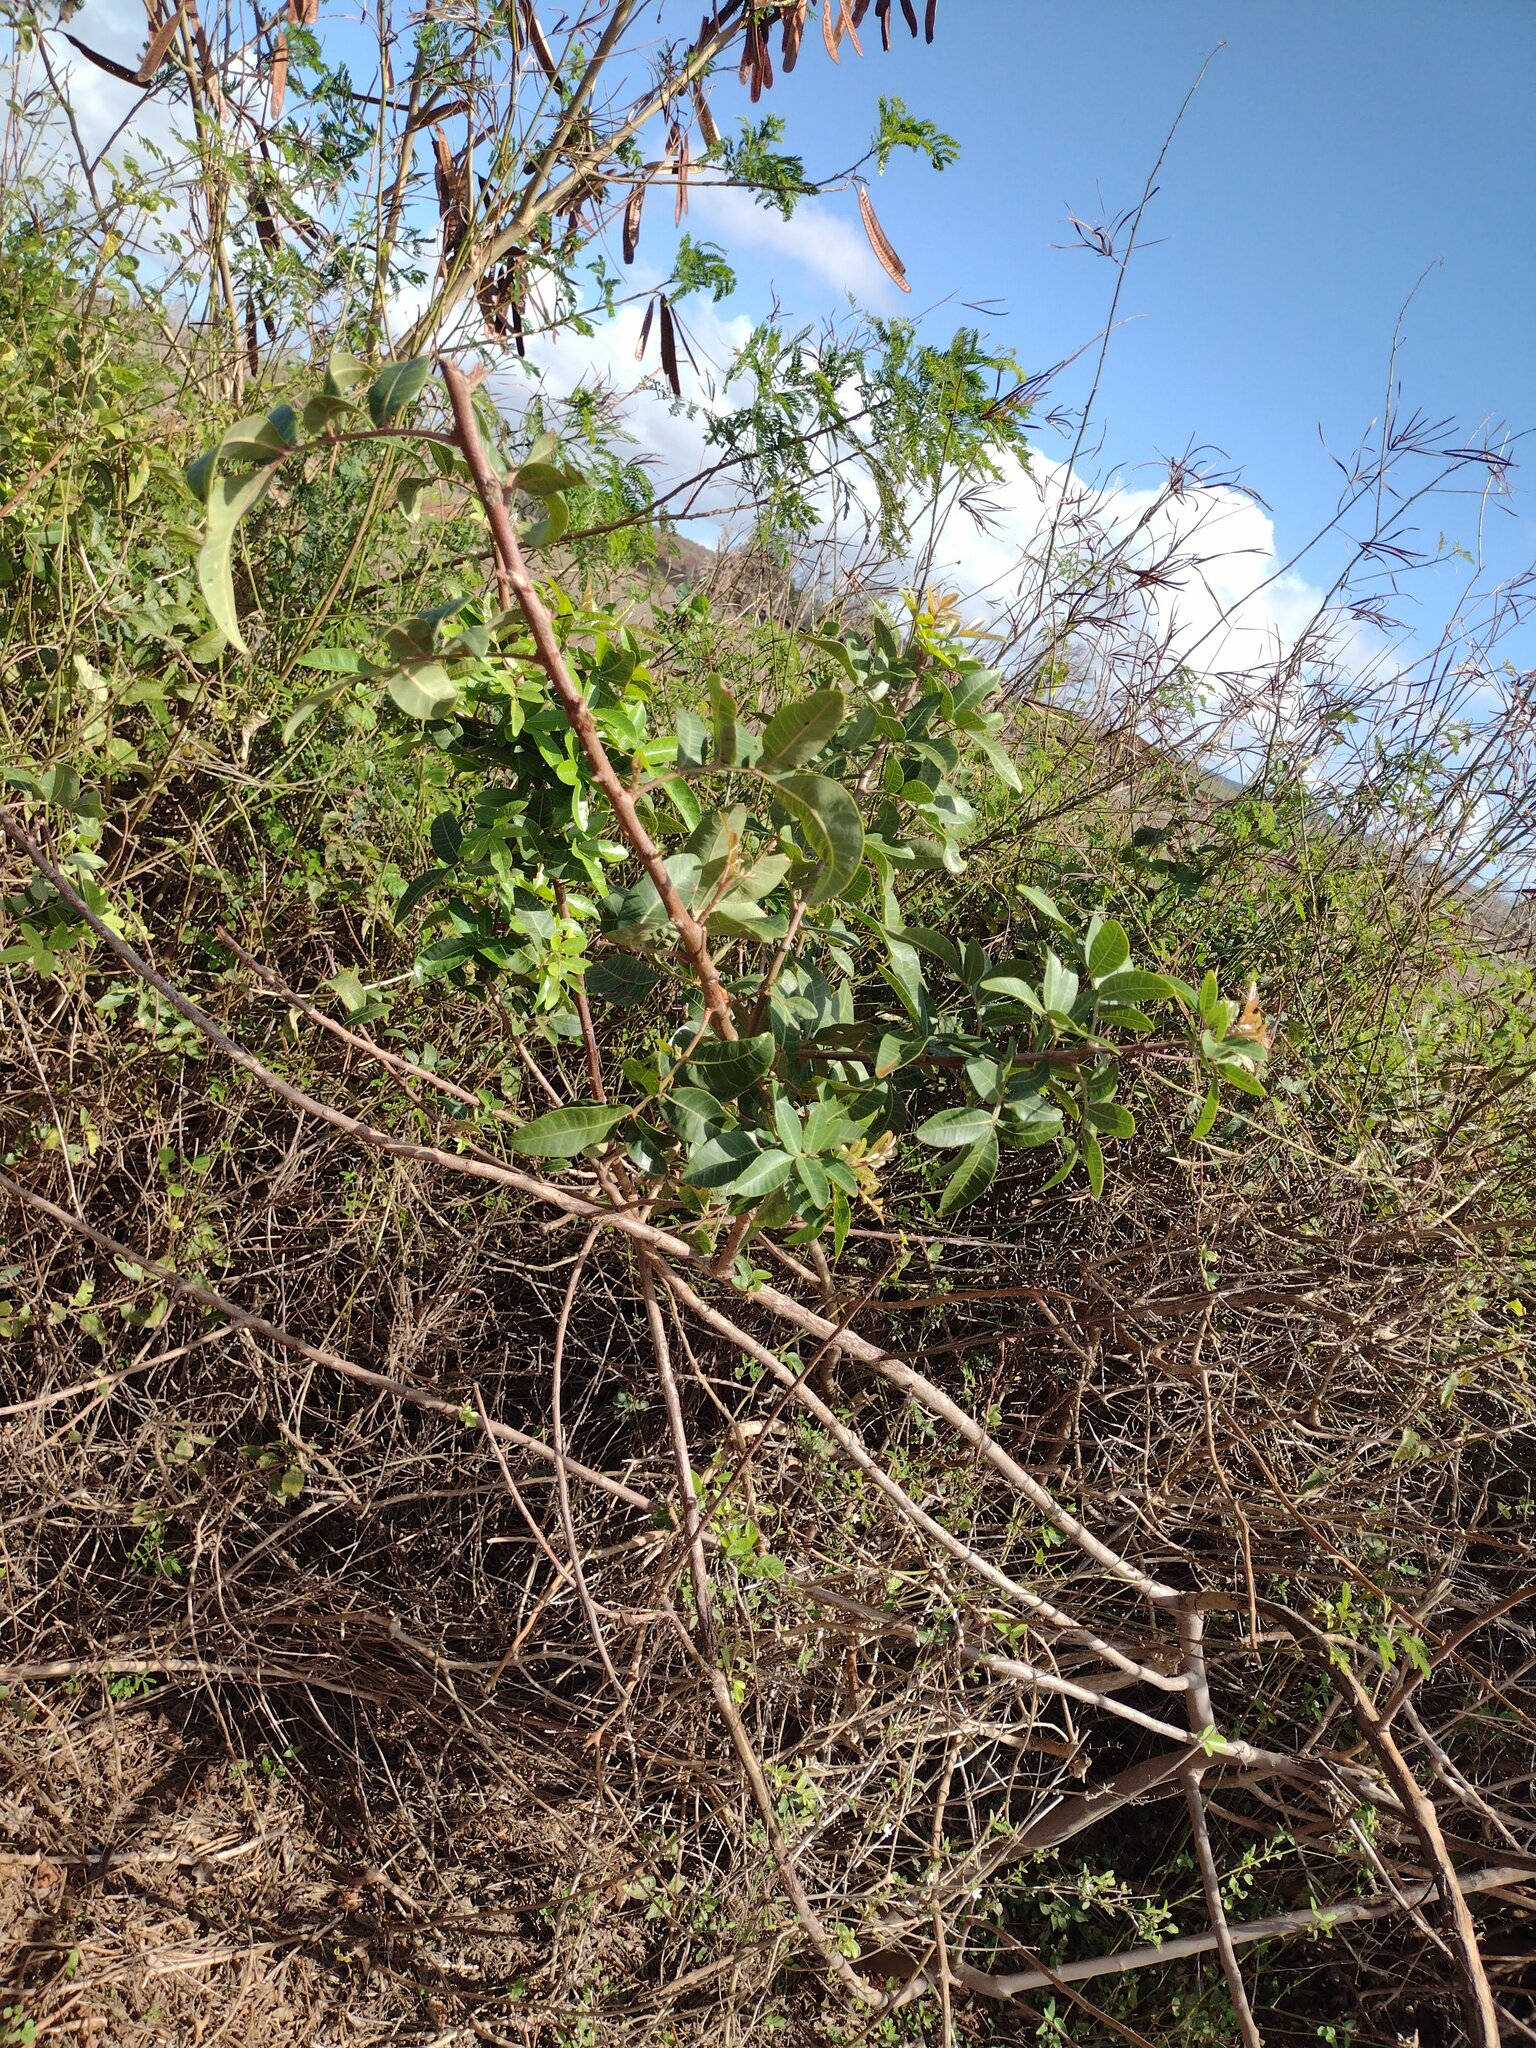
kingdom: Plantae
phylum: Tracheophyta
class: Magnoliopsida
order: Sapindales
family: Anacardiaceae
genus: Schinus
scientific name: Schinus terebinthifolia
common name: Brazilian peppertree
